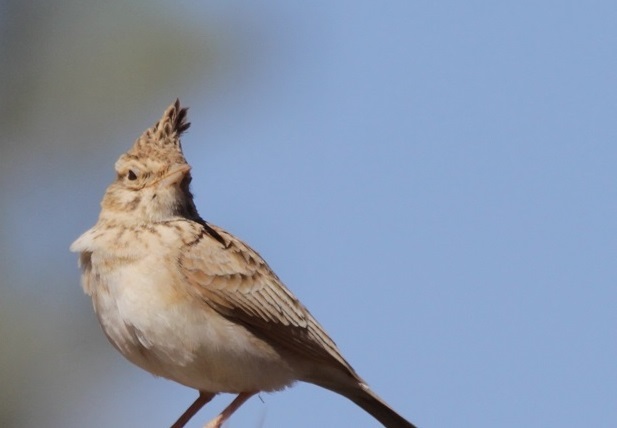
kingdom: Animalia
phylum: Chordata
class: Aves
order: Passeriformes
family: Alaudidae
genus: Galerida
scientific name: Galerida cristata
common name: Crested lark
